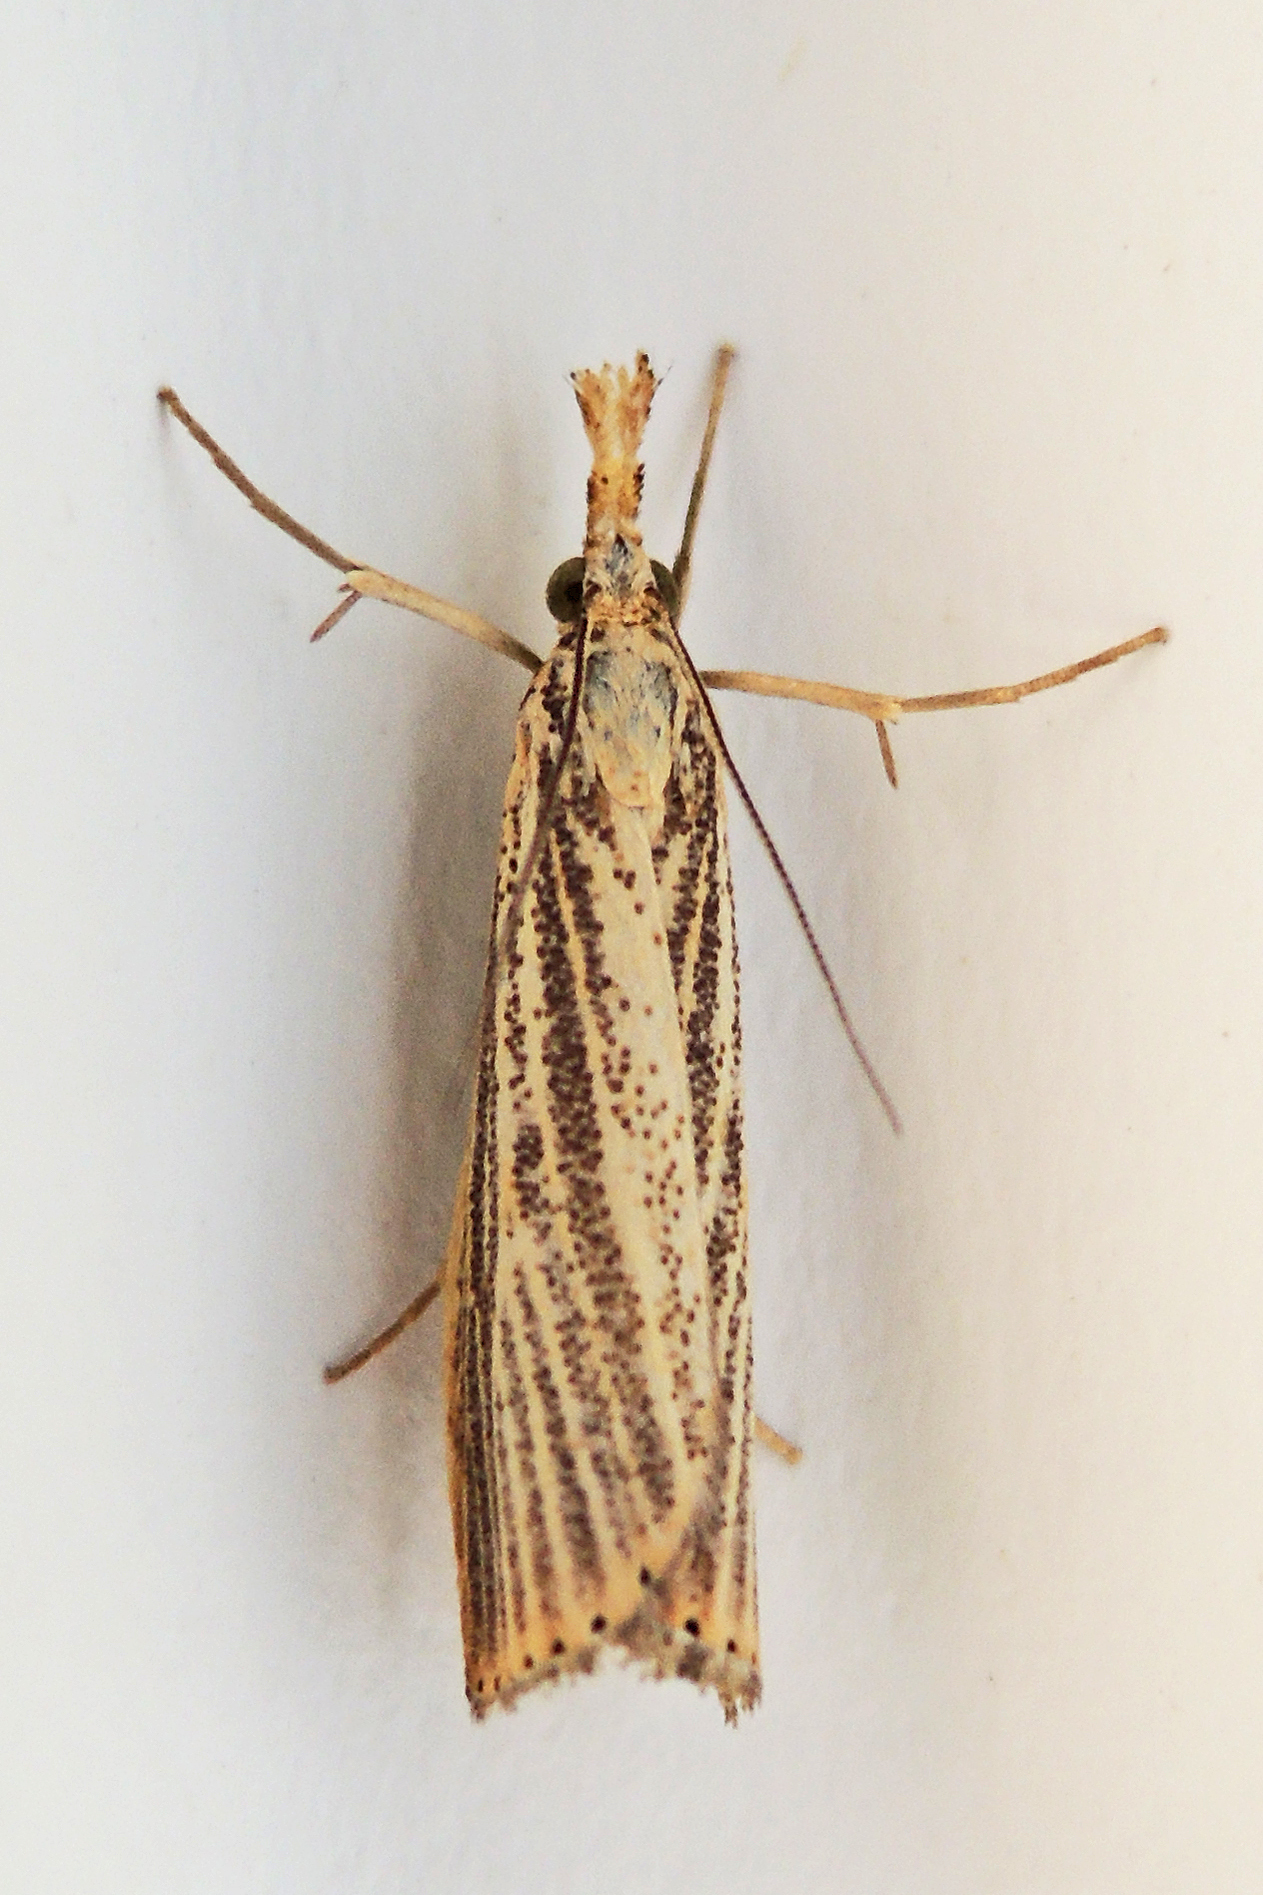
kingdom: Animalia
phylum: Arthropoda
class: Insecta
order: Lepidoptera
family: Crambidae
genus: Agriphila
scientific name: Agriphila vulgivagellus
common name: Vagabond crambus moth
